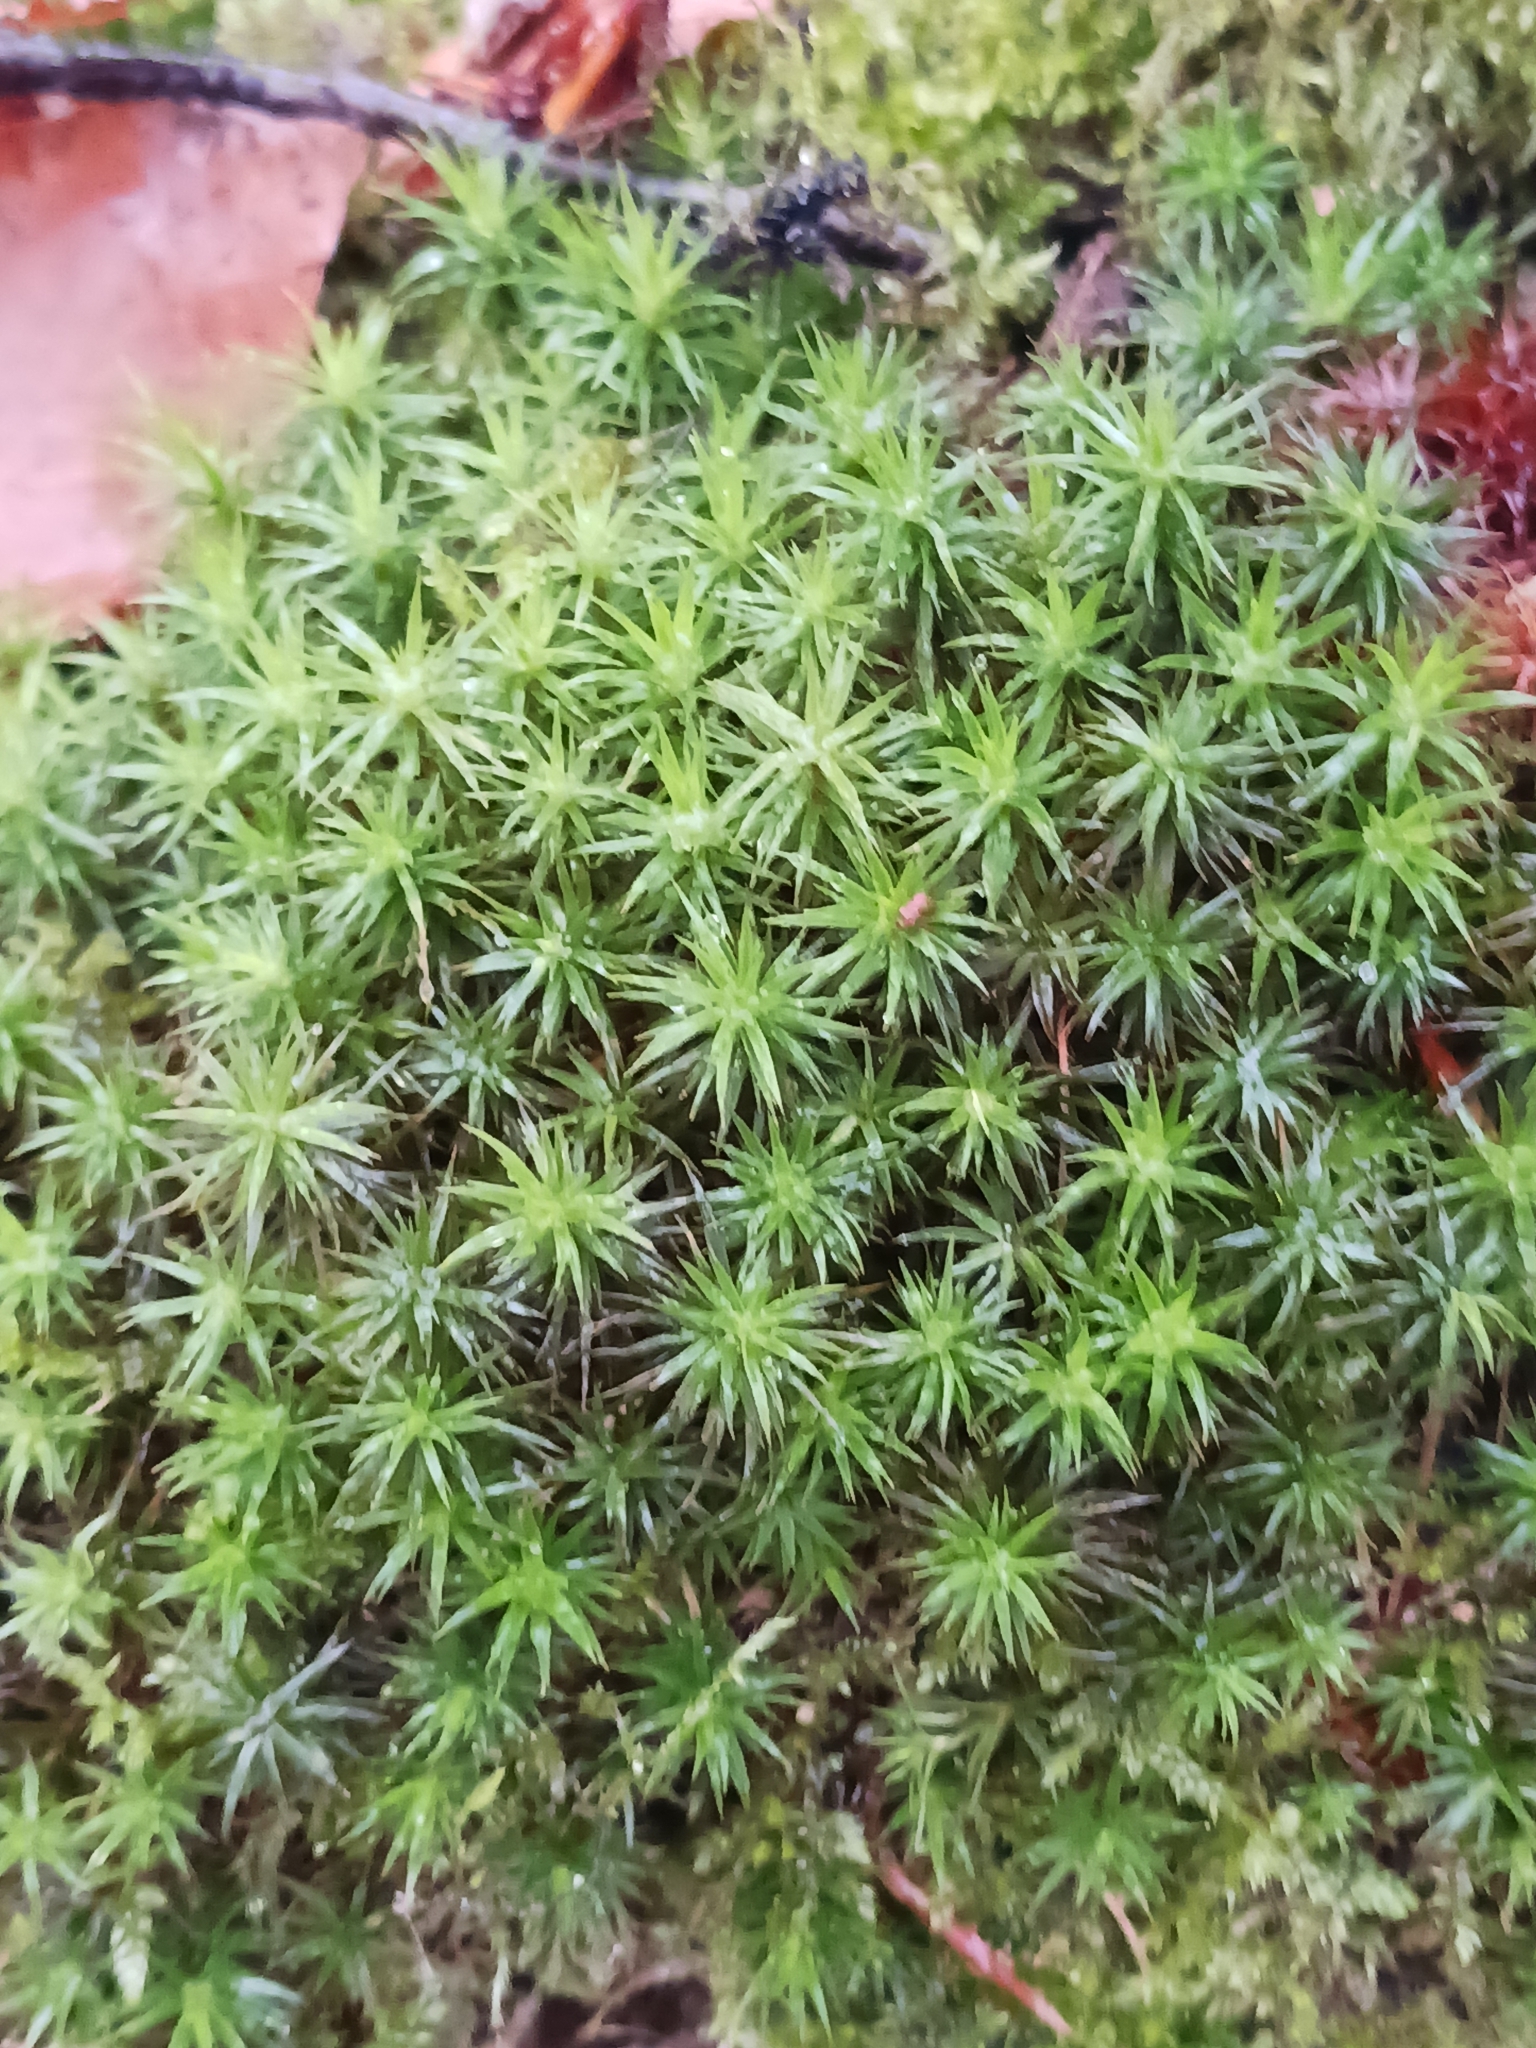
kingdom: Plantae
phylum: Bryophyta
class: Polytrichopsida
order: Polytrichales
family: Polytrichaceae
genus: Polytrichum
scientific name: Polytrichum formosum
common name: Bank haircap moss
